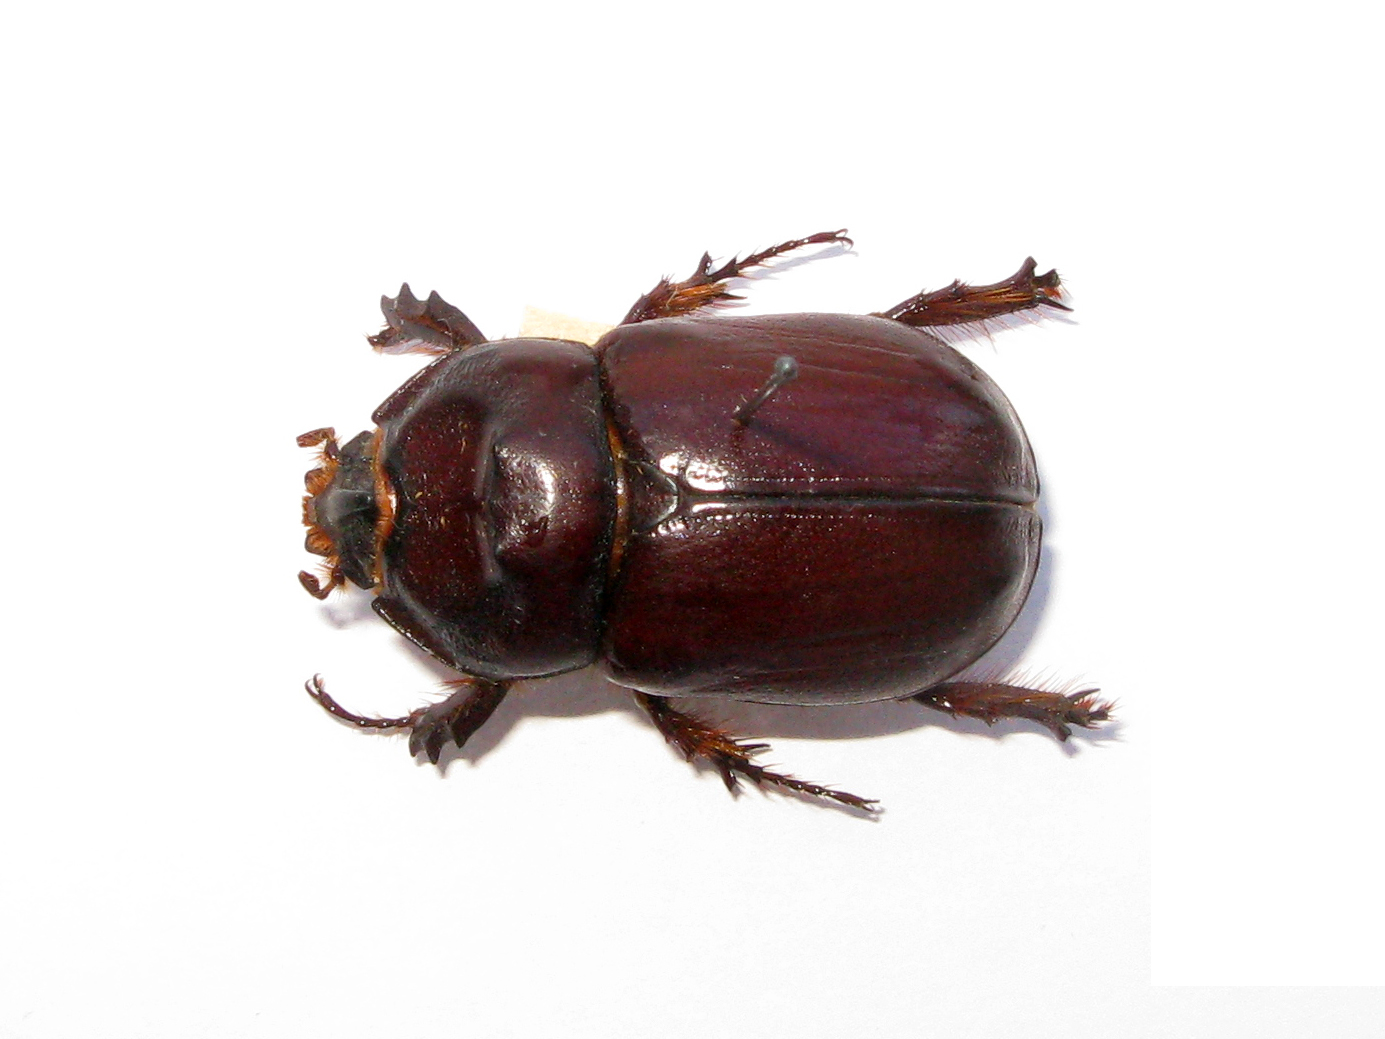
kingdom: Animalia
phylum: Arthropoda
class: Insecta
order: Coleoptera
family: Scarabaeidae
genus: Oryctes
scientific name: Oryctes nasicornis
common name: European rhinoceros beetle
